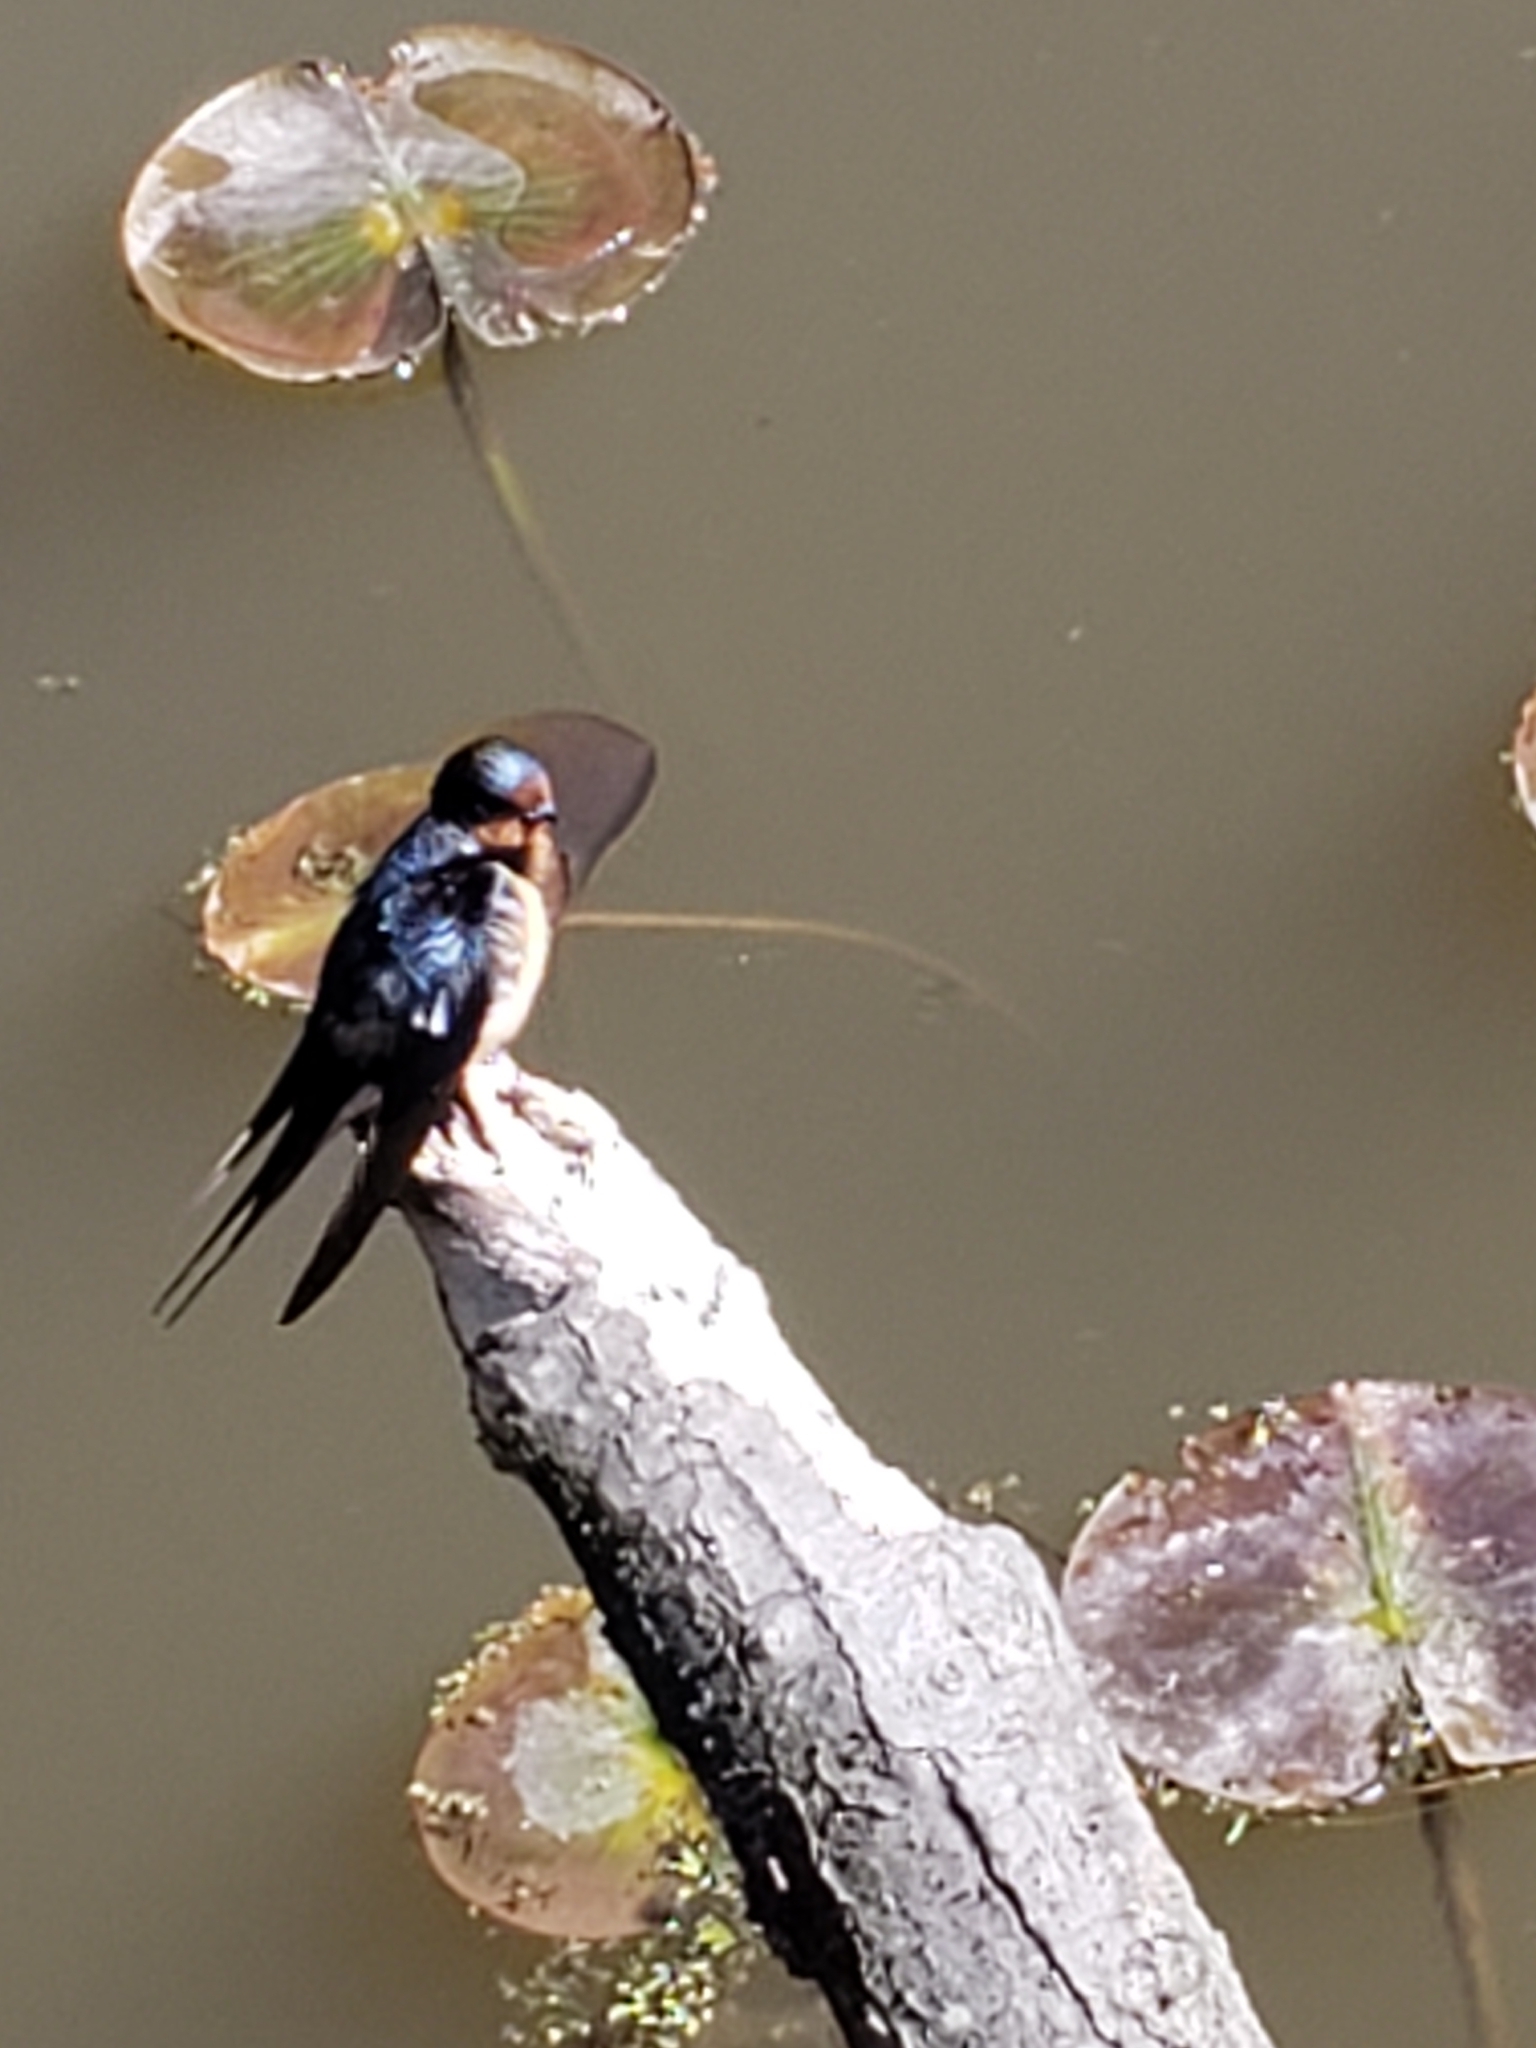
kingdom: Animalia
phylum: Chordata
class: Aves
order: Passeriformes
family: Hirundinidae
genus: Hirundo
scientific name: Hirundo rustica
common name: Barn swallow
